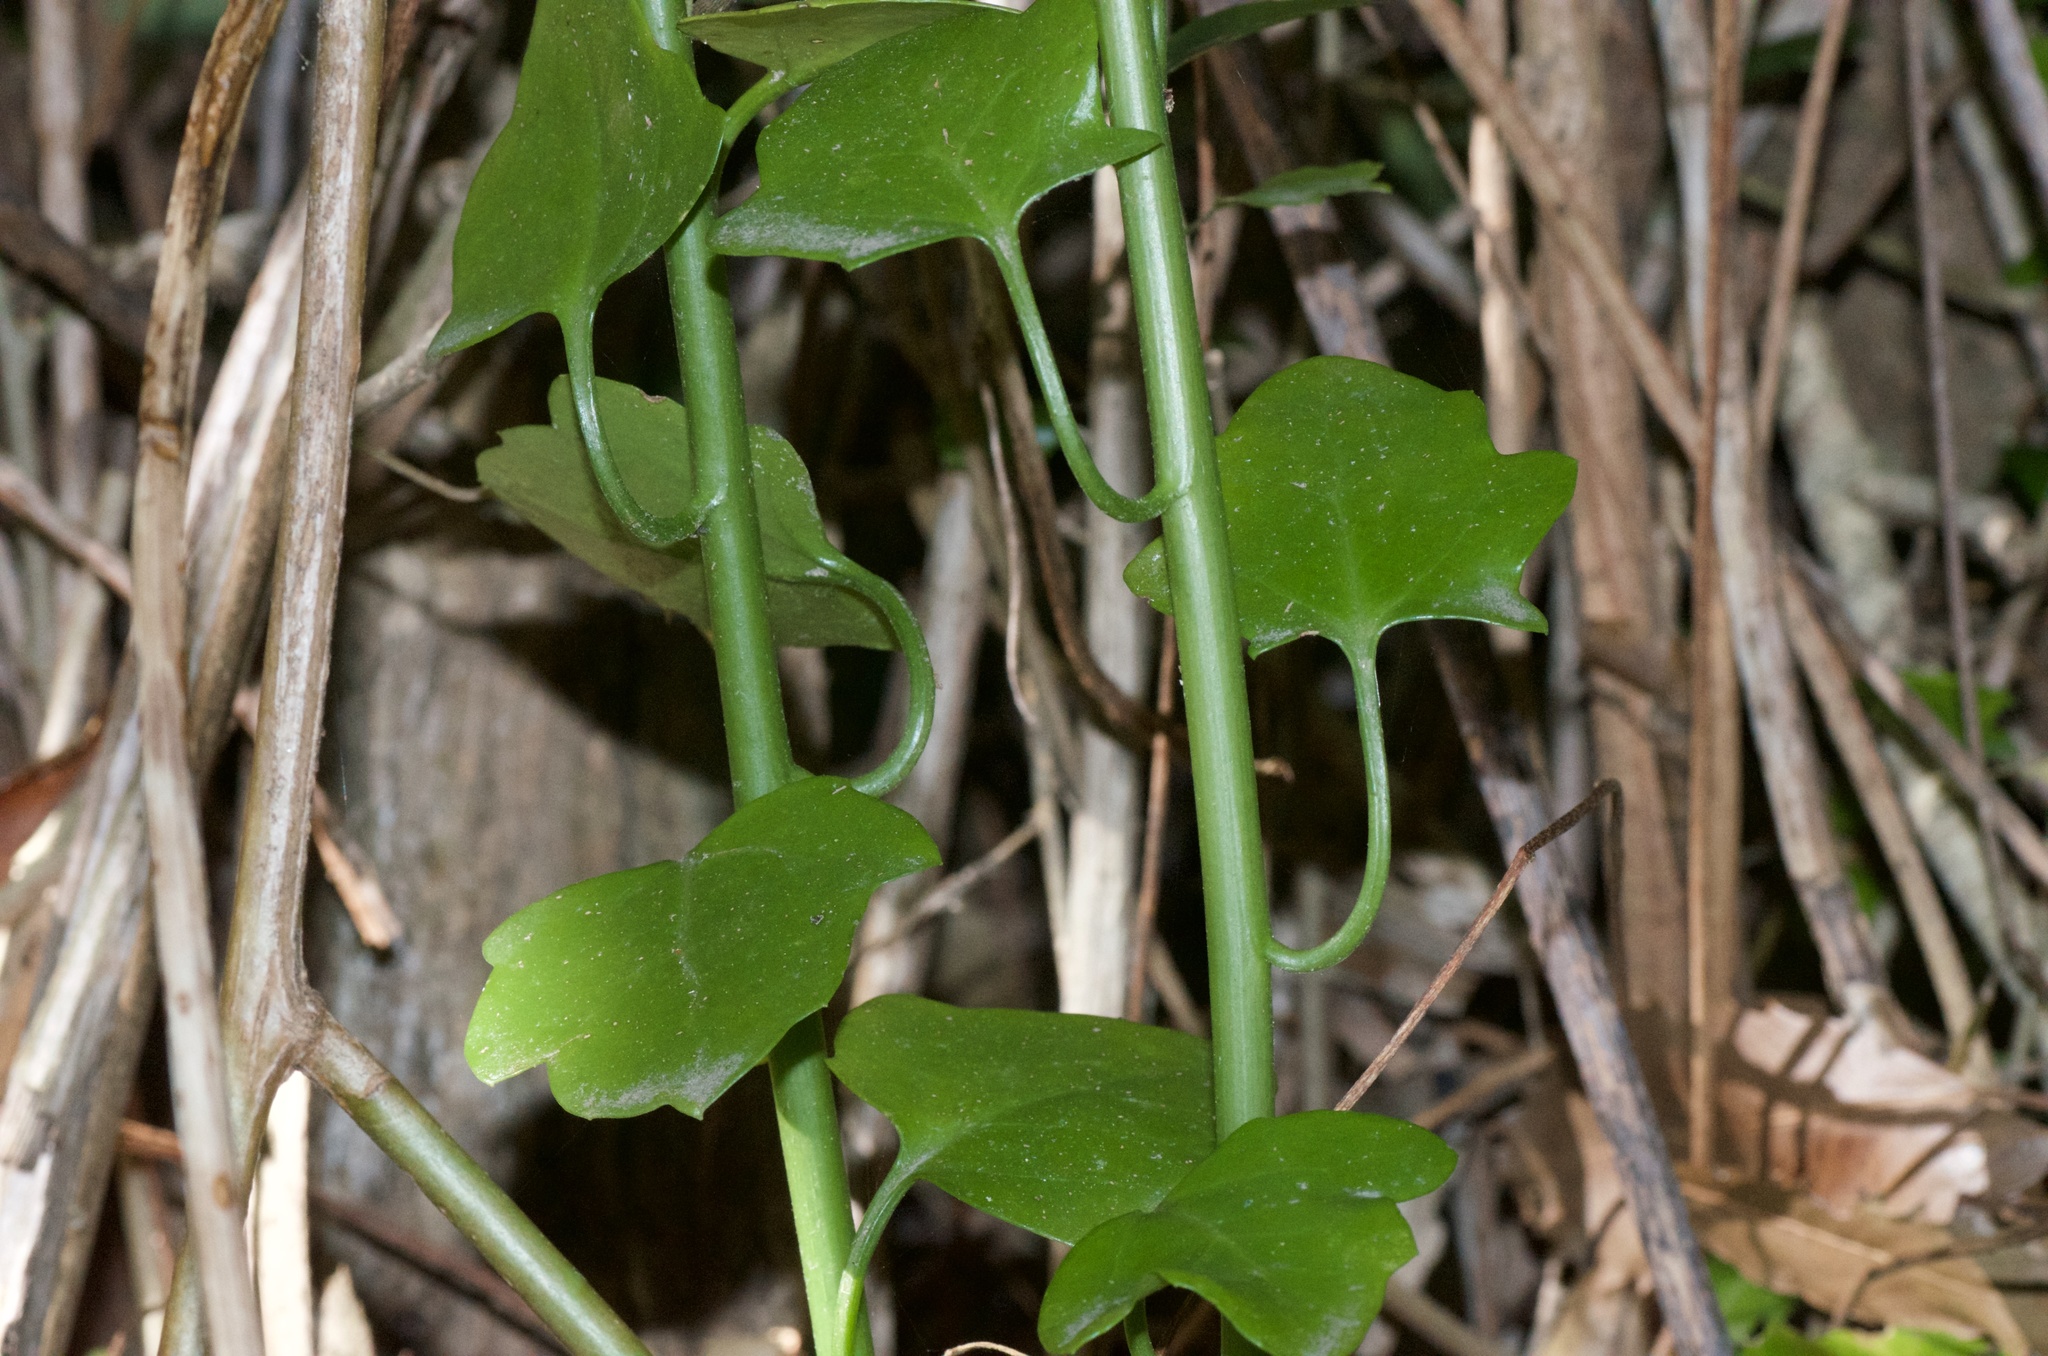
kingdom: Plantae
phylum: Tracheophyta
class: Magnoliopsida
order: Asterales
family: Asteraceae
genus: Senecio
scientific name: Senecio angulatus
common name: Climbing groundsel
